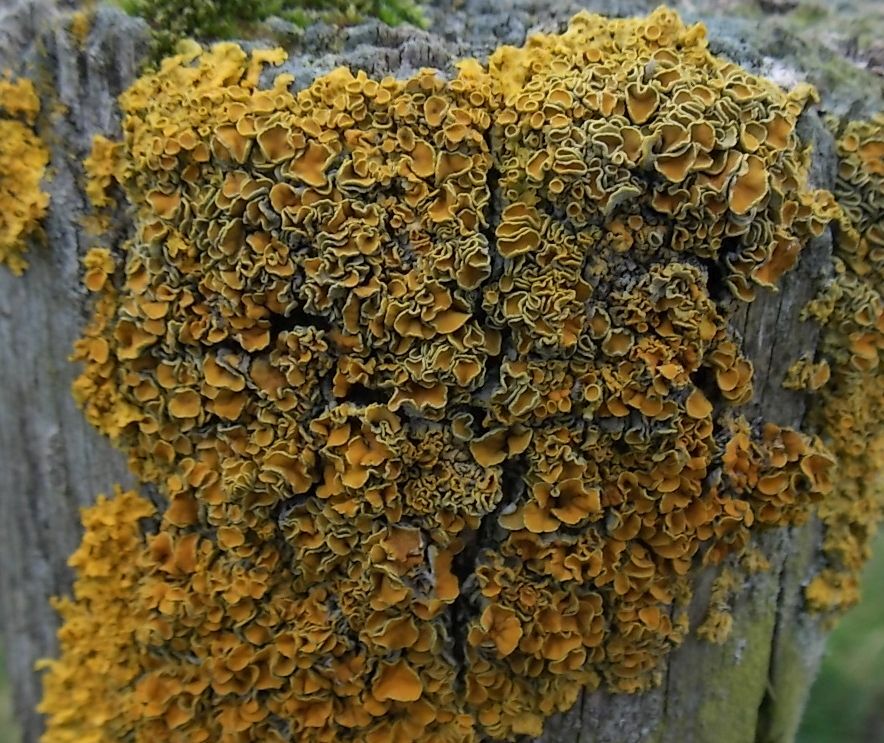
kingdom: Fungi
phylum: Ascomycota
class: Lecanoromycetes
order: Teloschistales
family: Teloschistaceae
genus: Xanthoria
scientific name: Xanthoria parietina
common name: Common orange lichen
